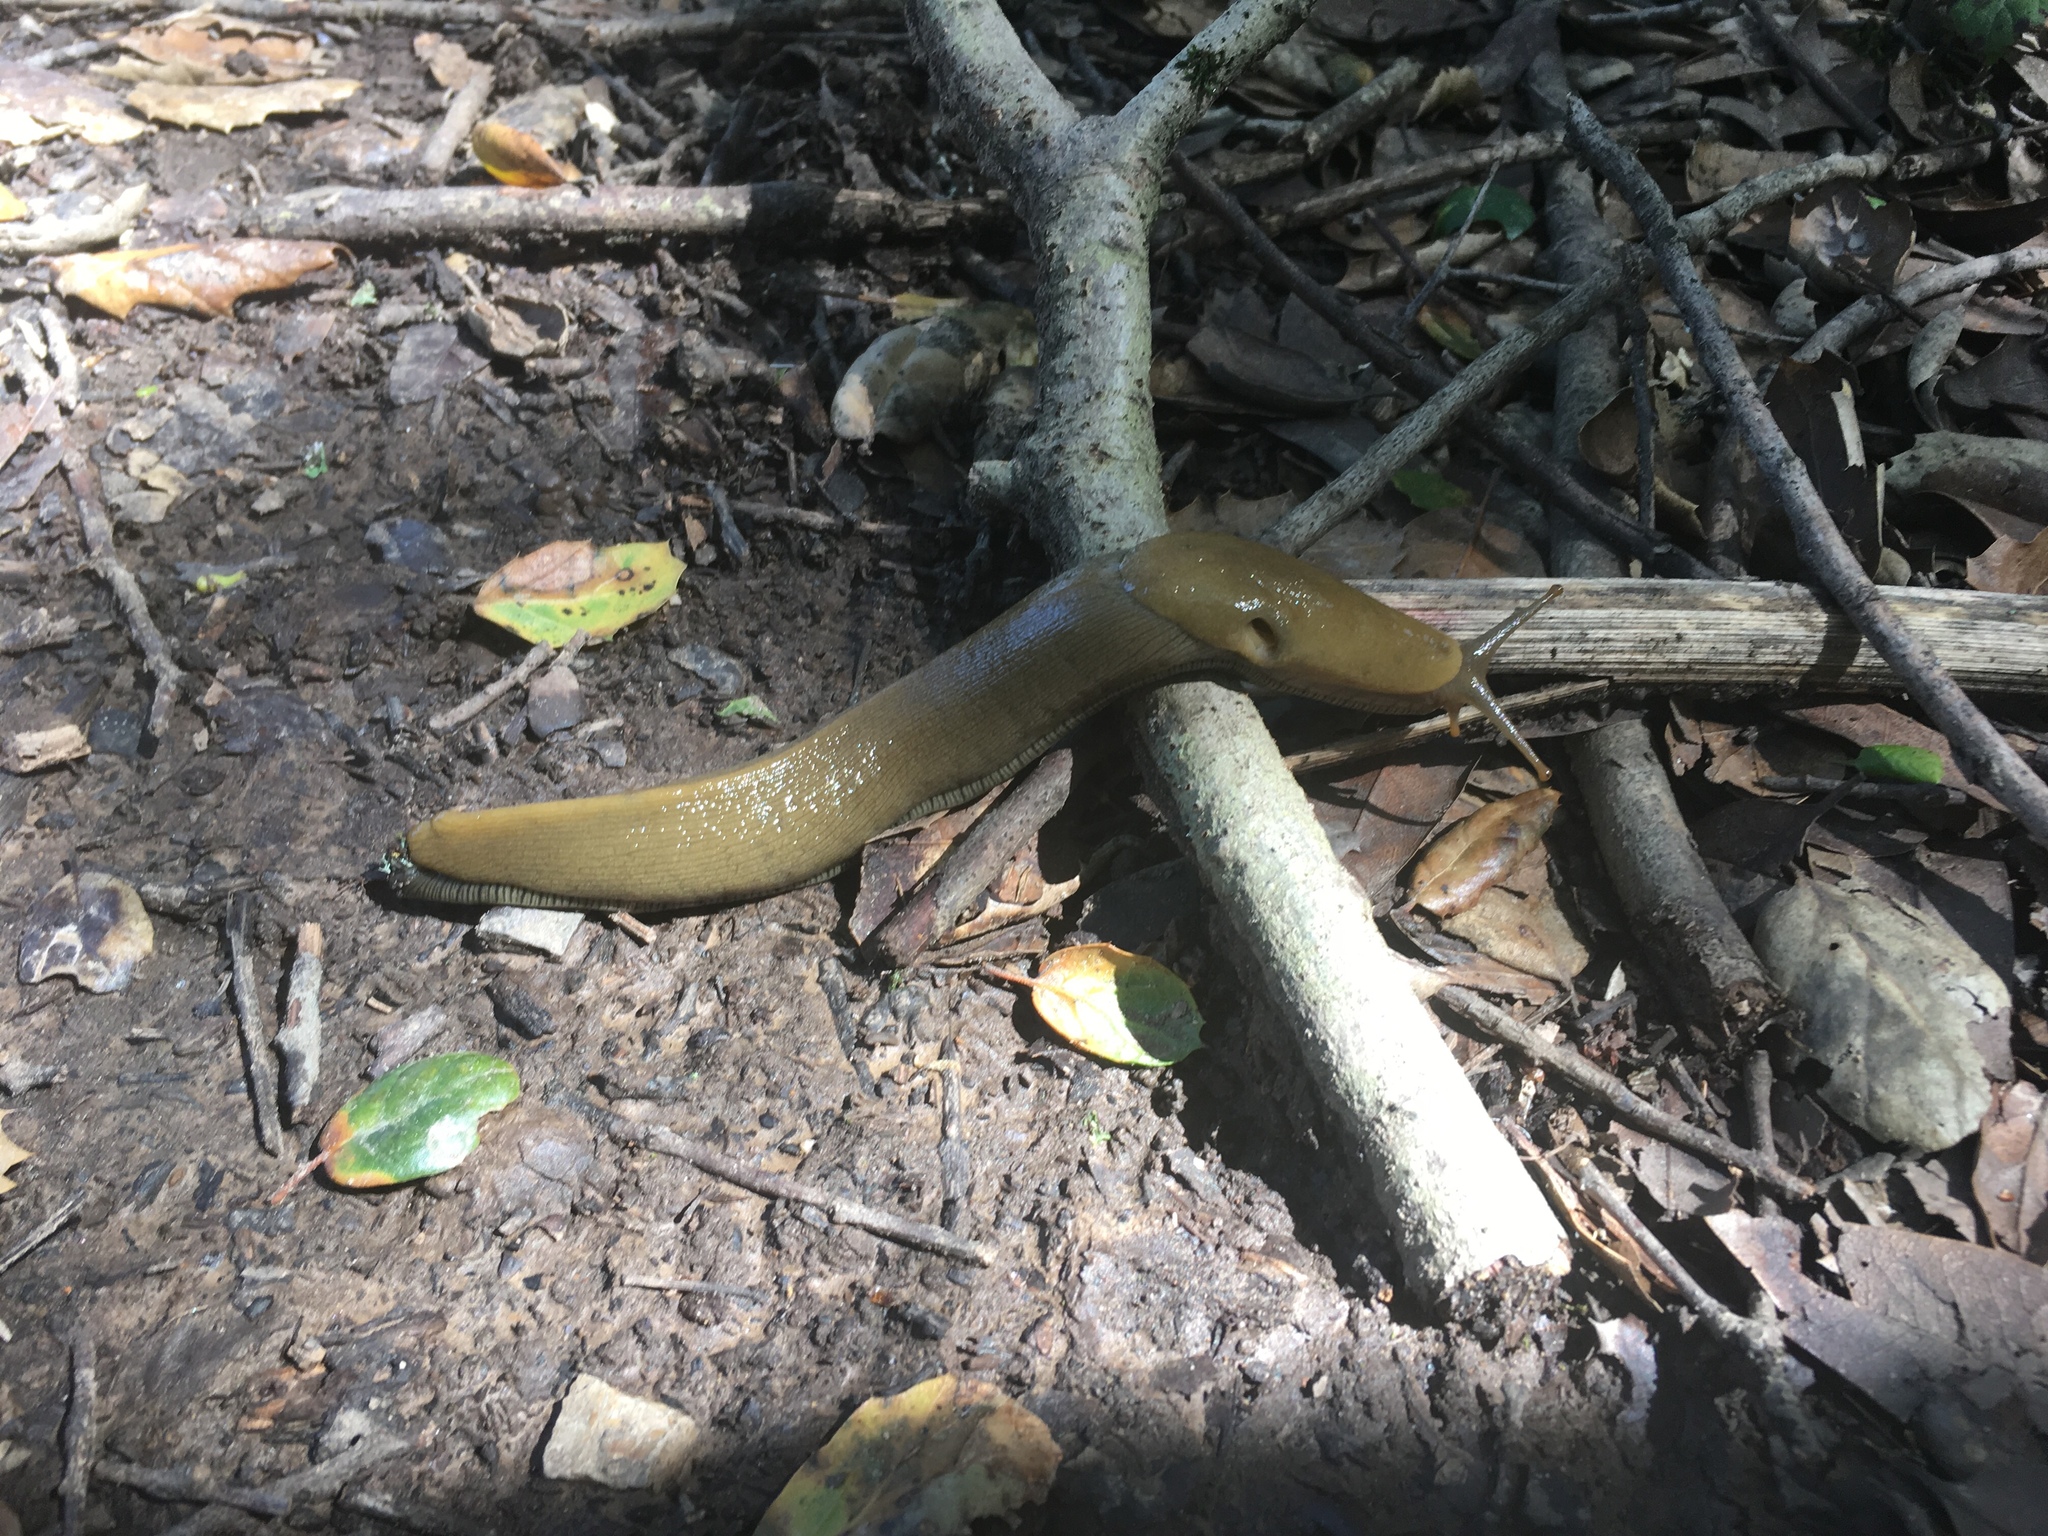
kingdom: Animalia
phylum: Mollusca
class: Gastropoda
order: Stylommatophora
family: Ariolimacidae
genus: Ariolimax
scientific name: Ariolimax buttoni
